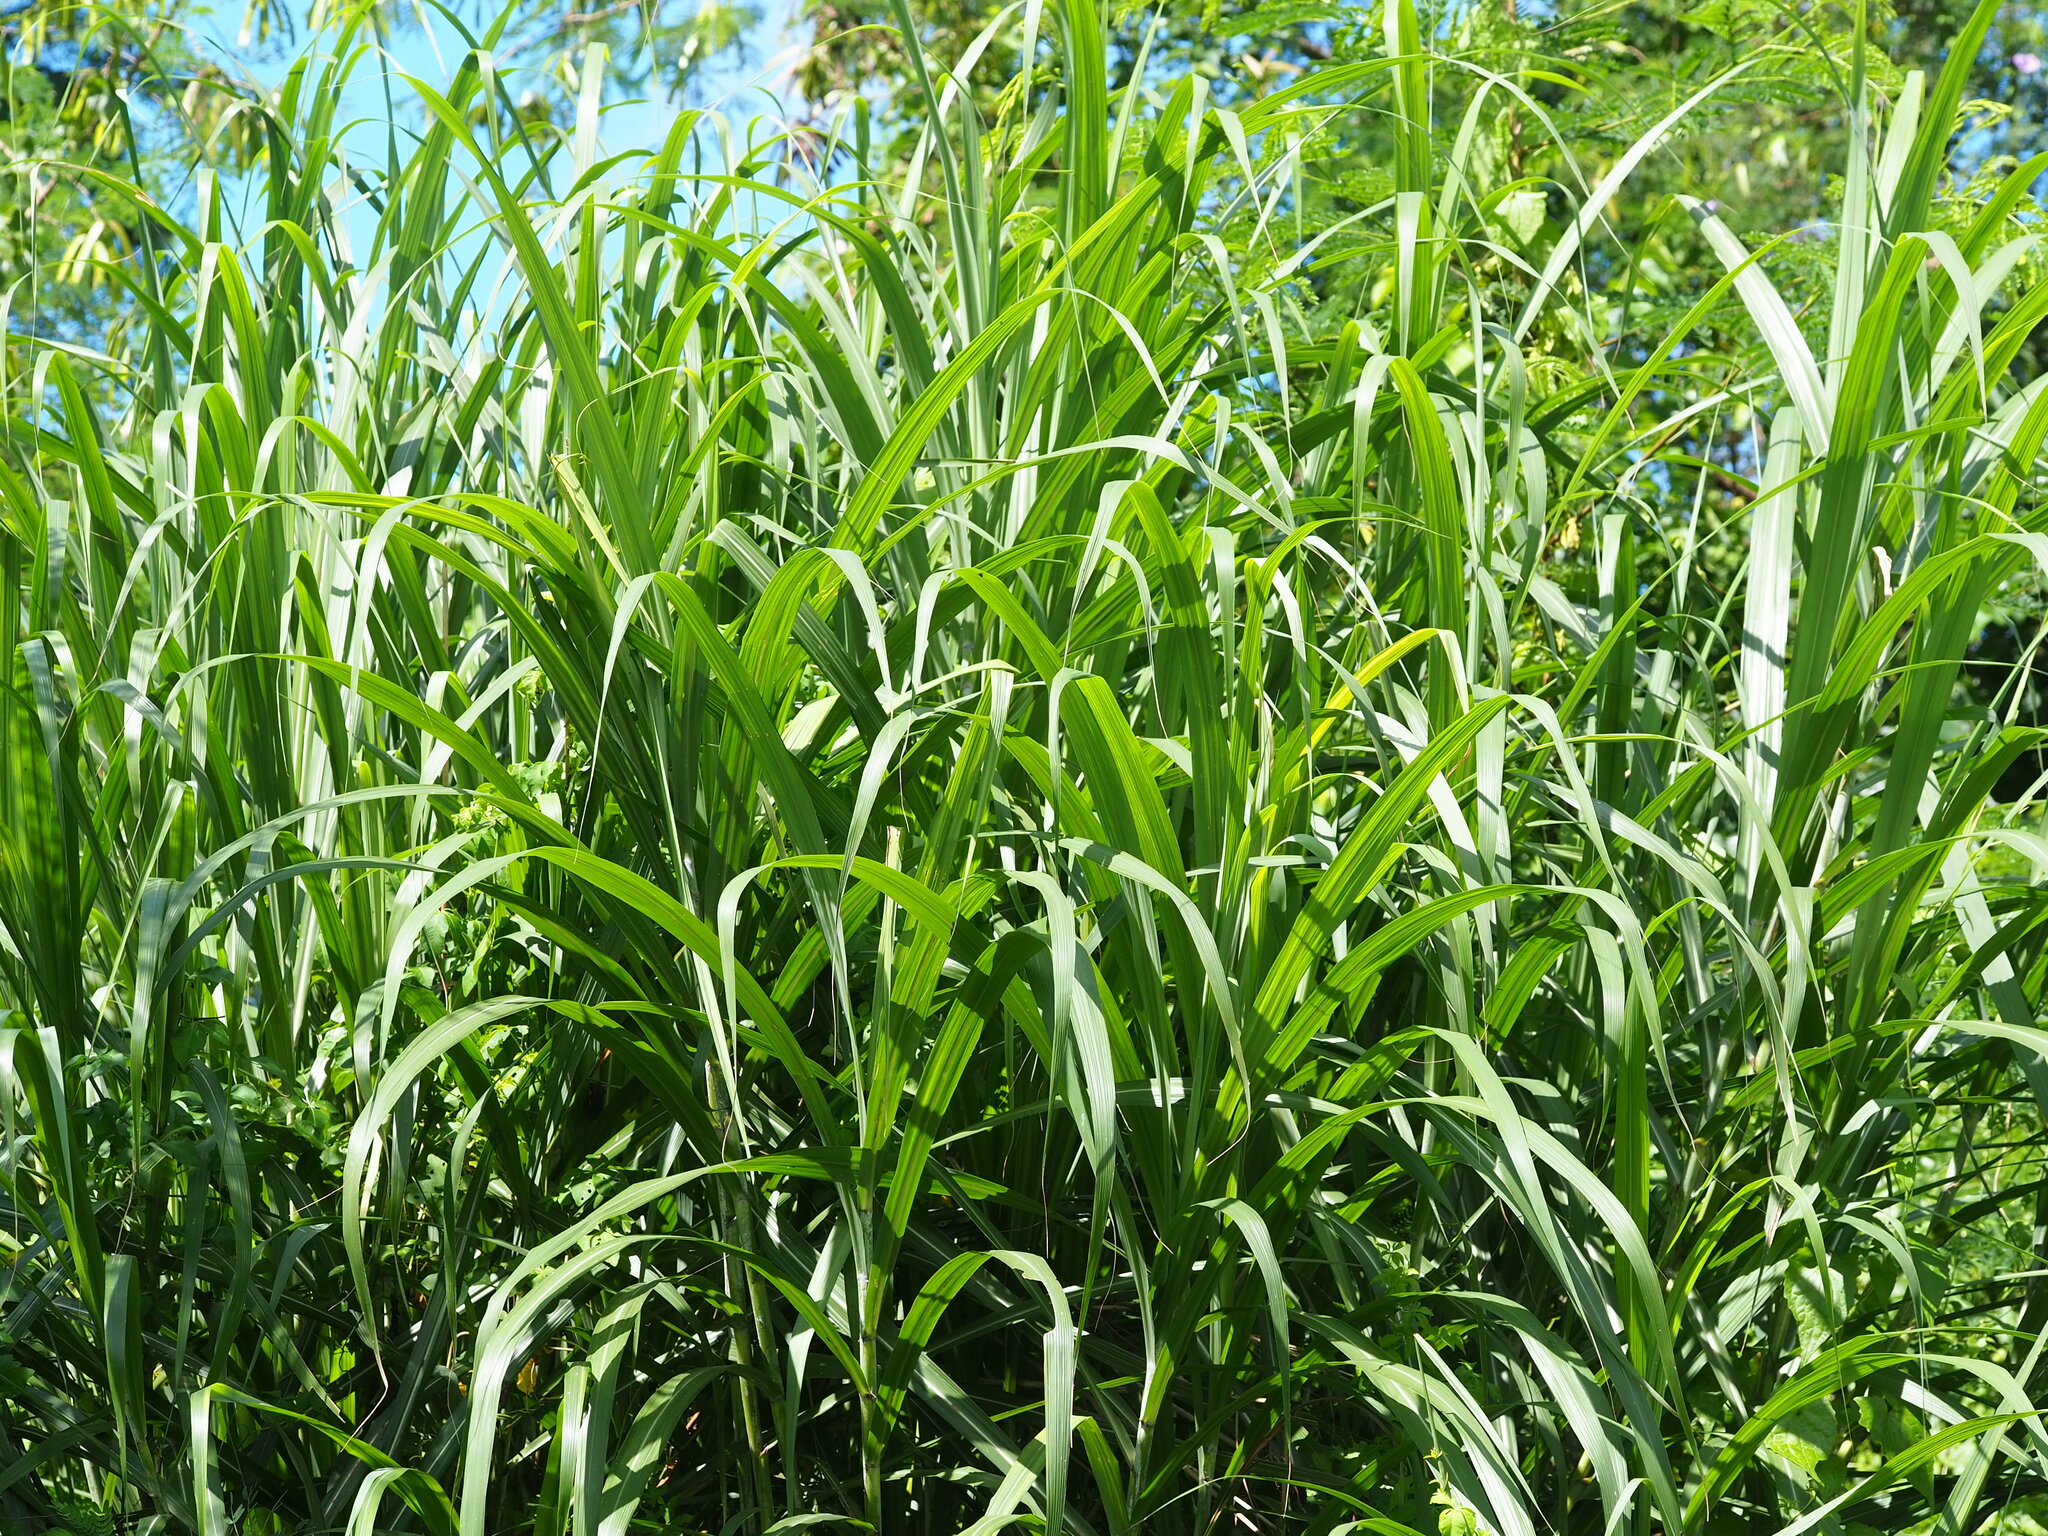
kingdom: Plantae
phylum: Tracheophyta
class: Liliopsida
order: Poales
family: Poaceae
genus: Cenchrus
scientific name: Cenchrus purpureus
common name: Elephant grass
